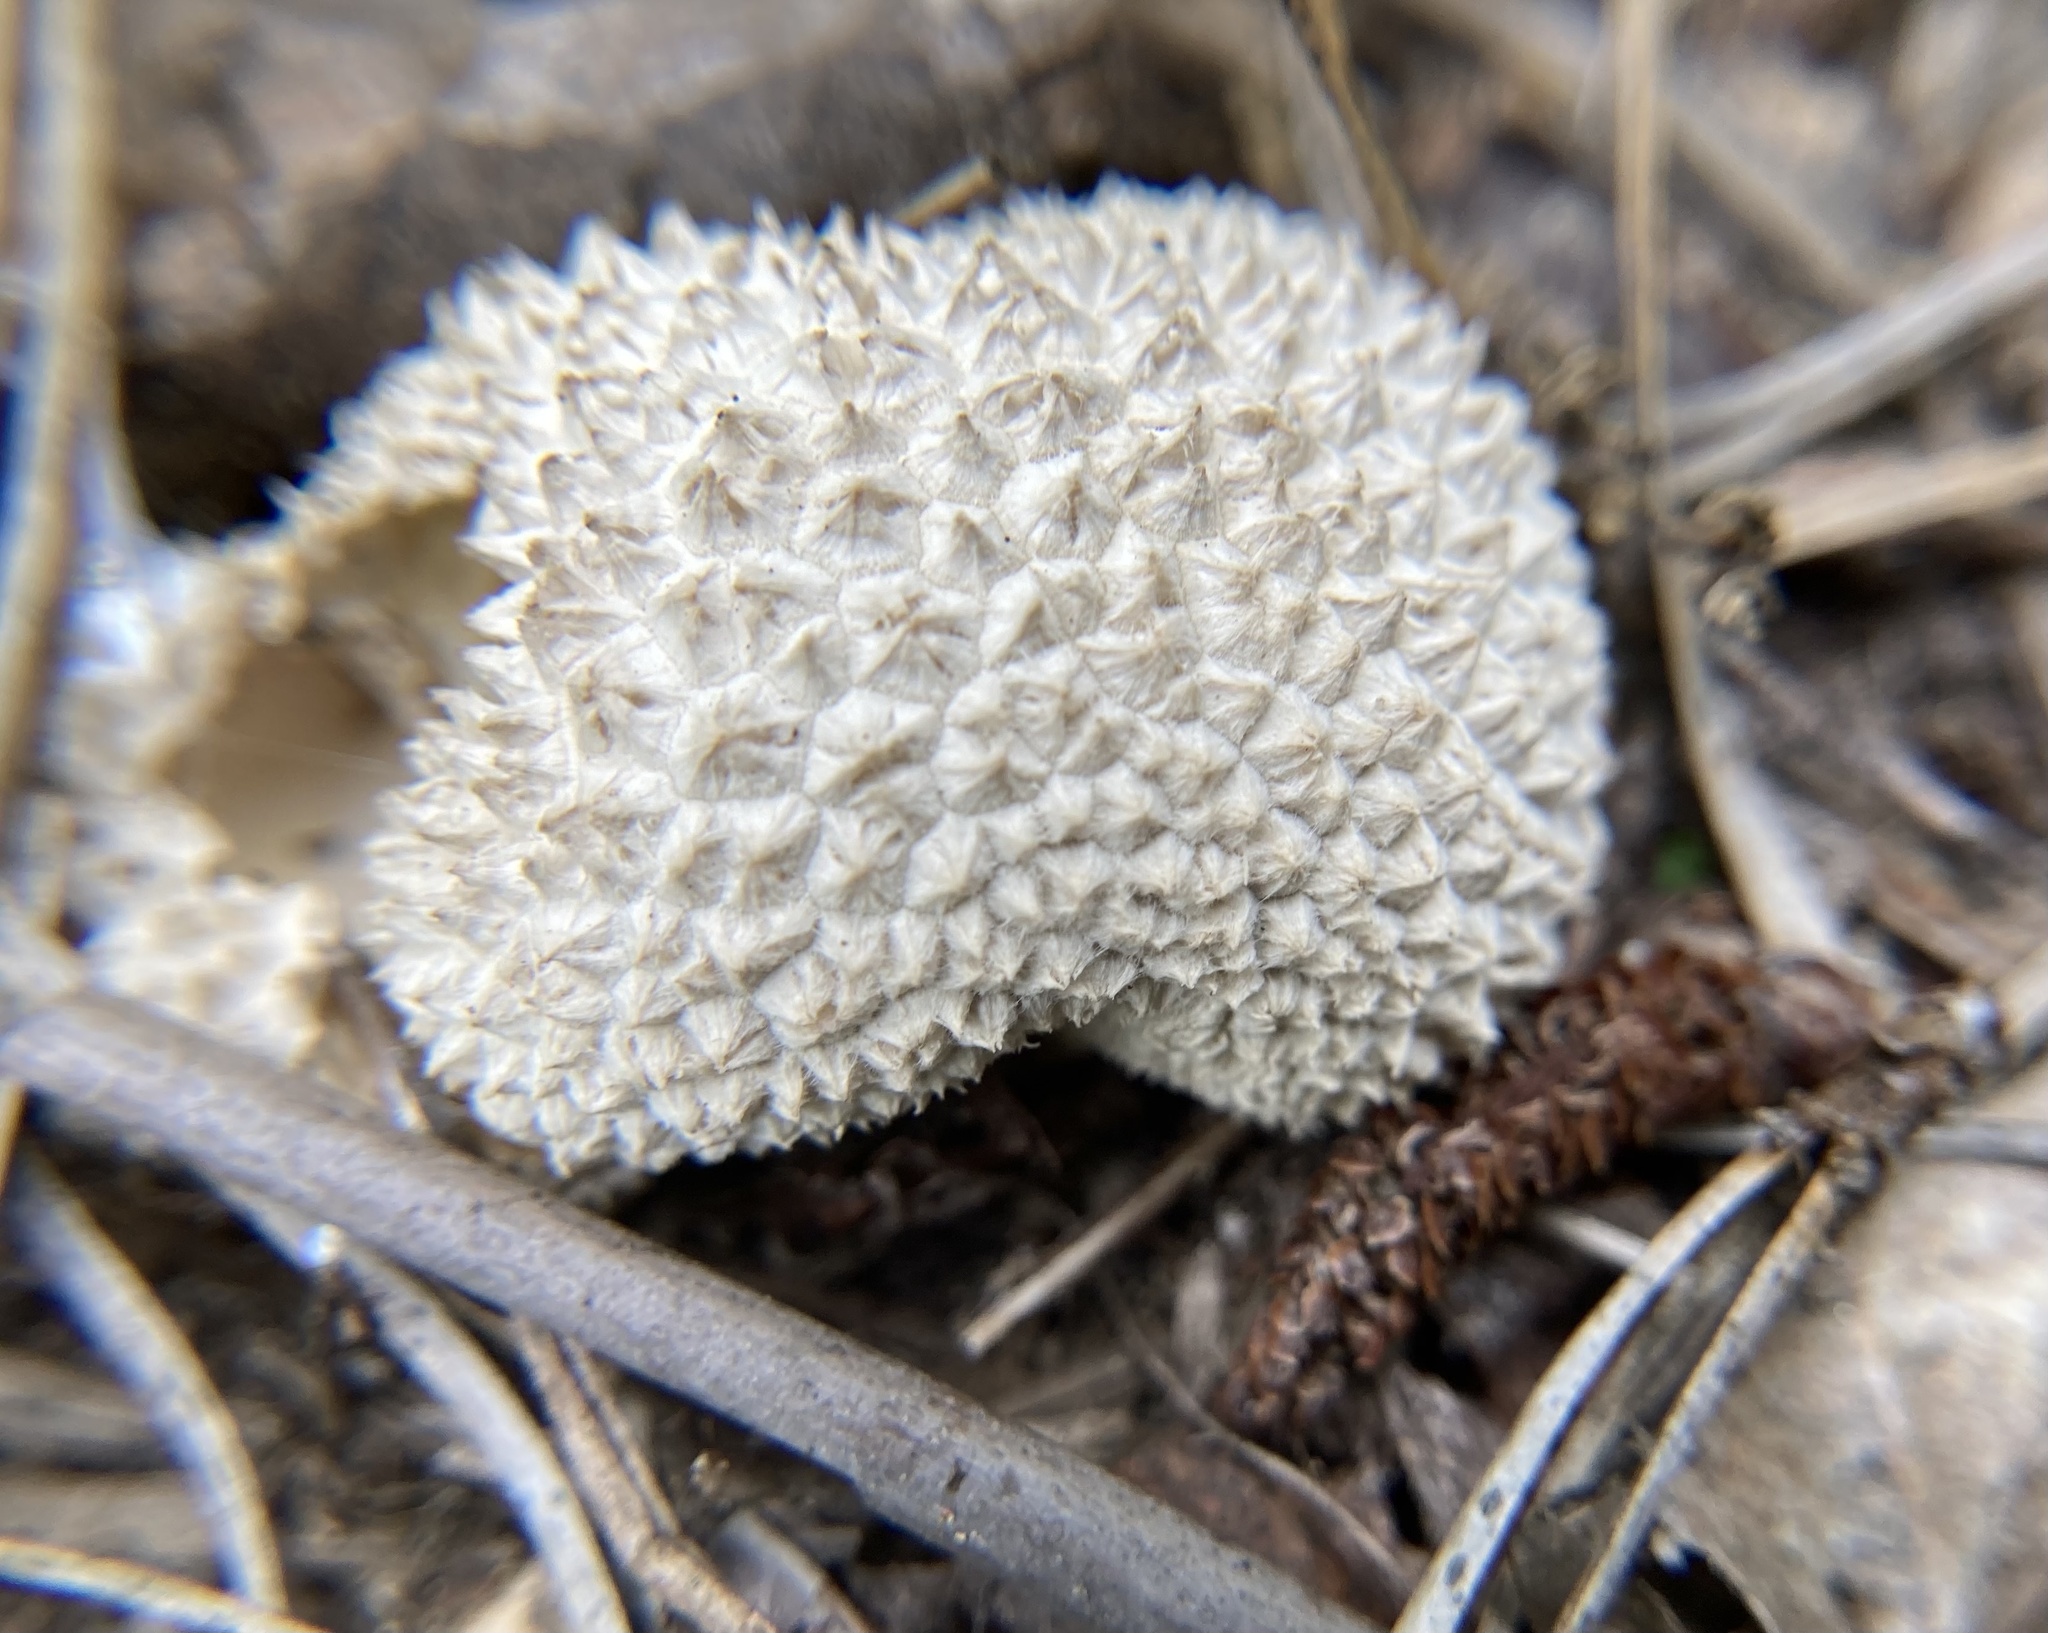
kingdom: Fungi
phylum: Basidiomycota
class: Agaricomycetes
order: Agaricales
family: Agaricaceae
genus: Lycoperdon
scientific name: Lycoperdon marginatum
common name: Peeling puffball
